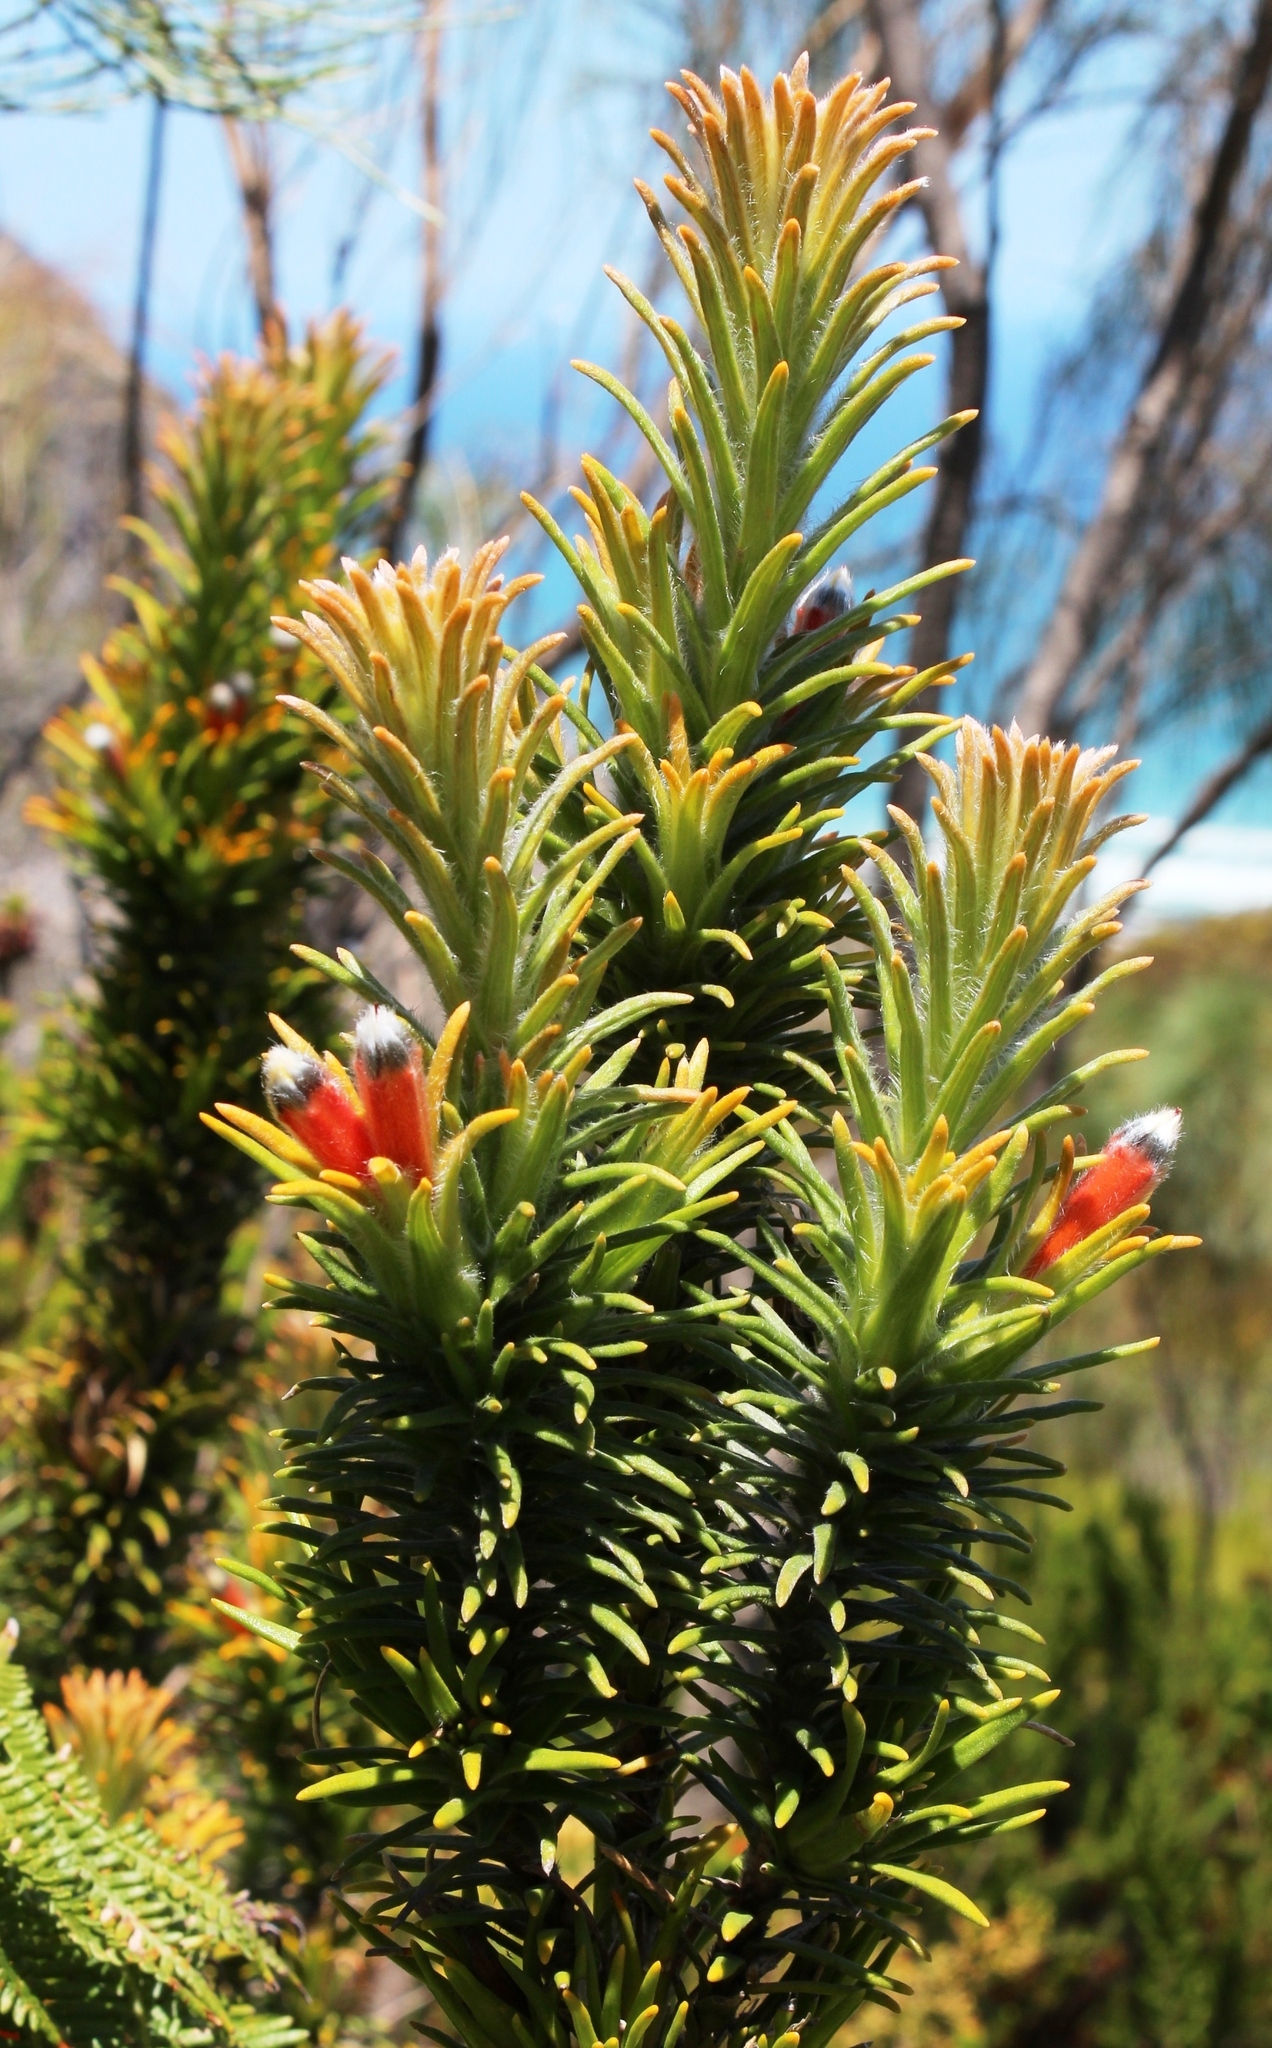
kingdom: Plantae
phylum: Tracheophyta
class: Magnoliopsida
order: Lamiales
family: Stilbaceae
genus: Retzia
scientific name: Retzia capensis
